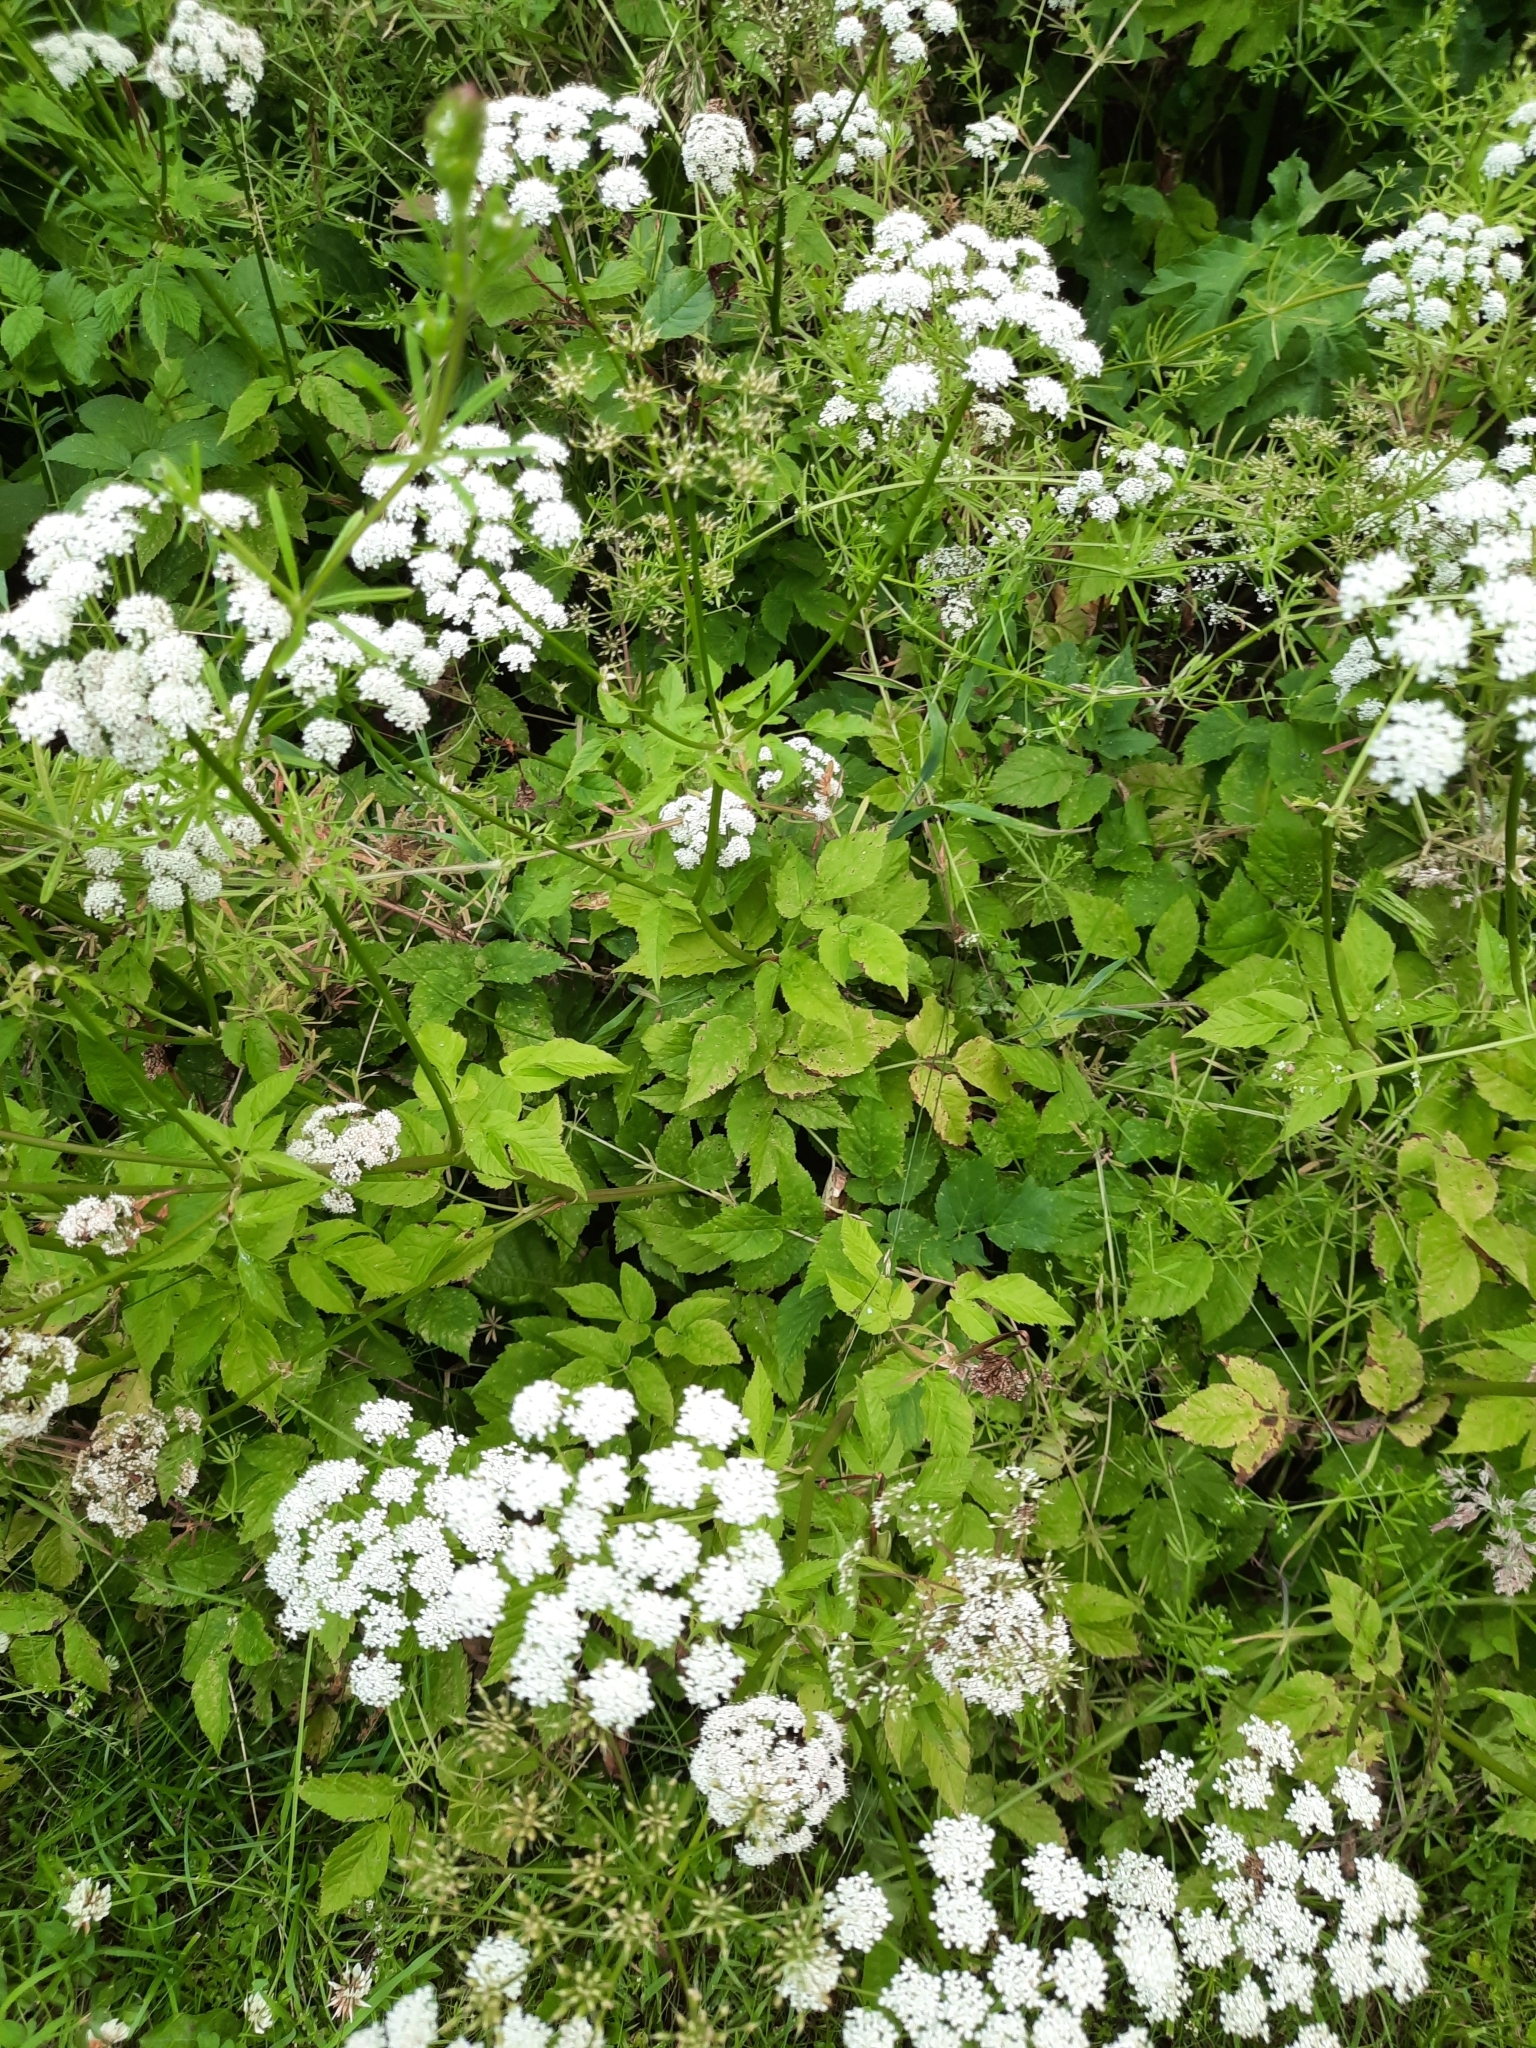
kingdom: Plantae
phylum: Tracheophyta
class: Magnoliopsida
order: Apiales
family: Apiaceae
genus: Aegopodium
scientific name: Aegopodium podagraria
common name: Ground-elder
